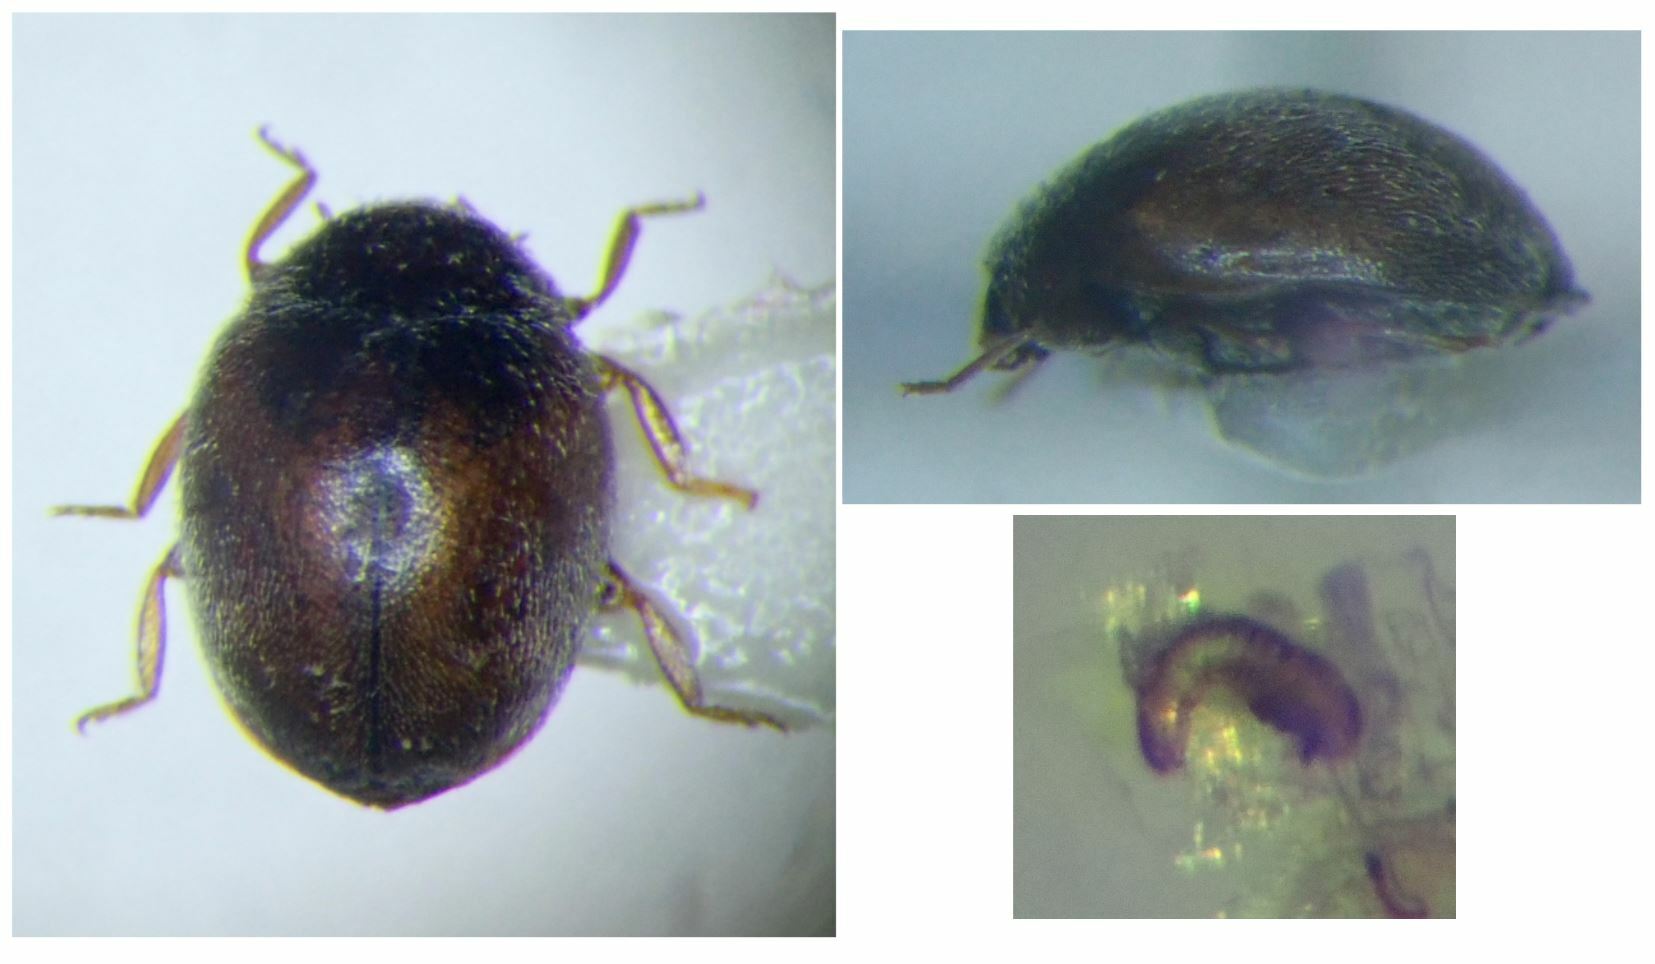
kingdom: Animalia
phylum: Arthropoda
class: Insecta
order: Coleoptera
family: Coccinellidae
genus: Scymnus
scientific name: Scymnus subvillosus
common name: Lady beetle
